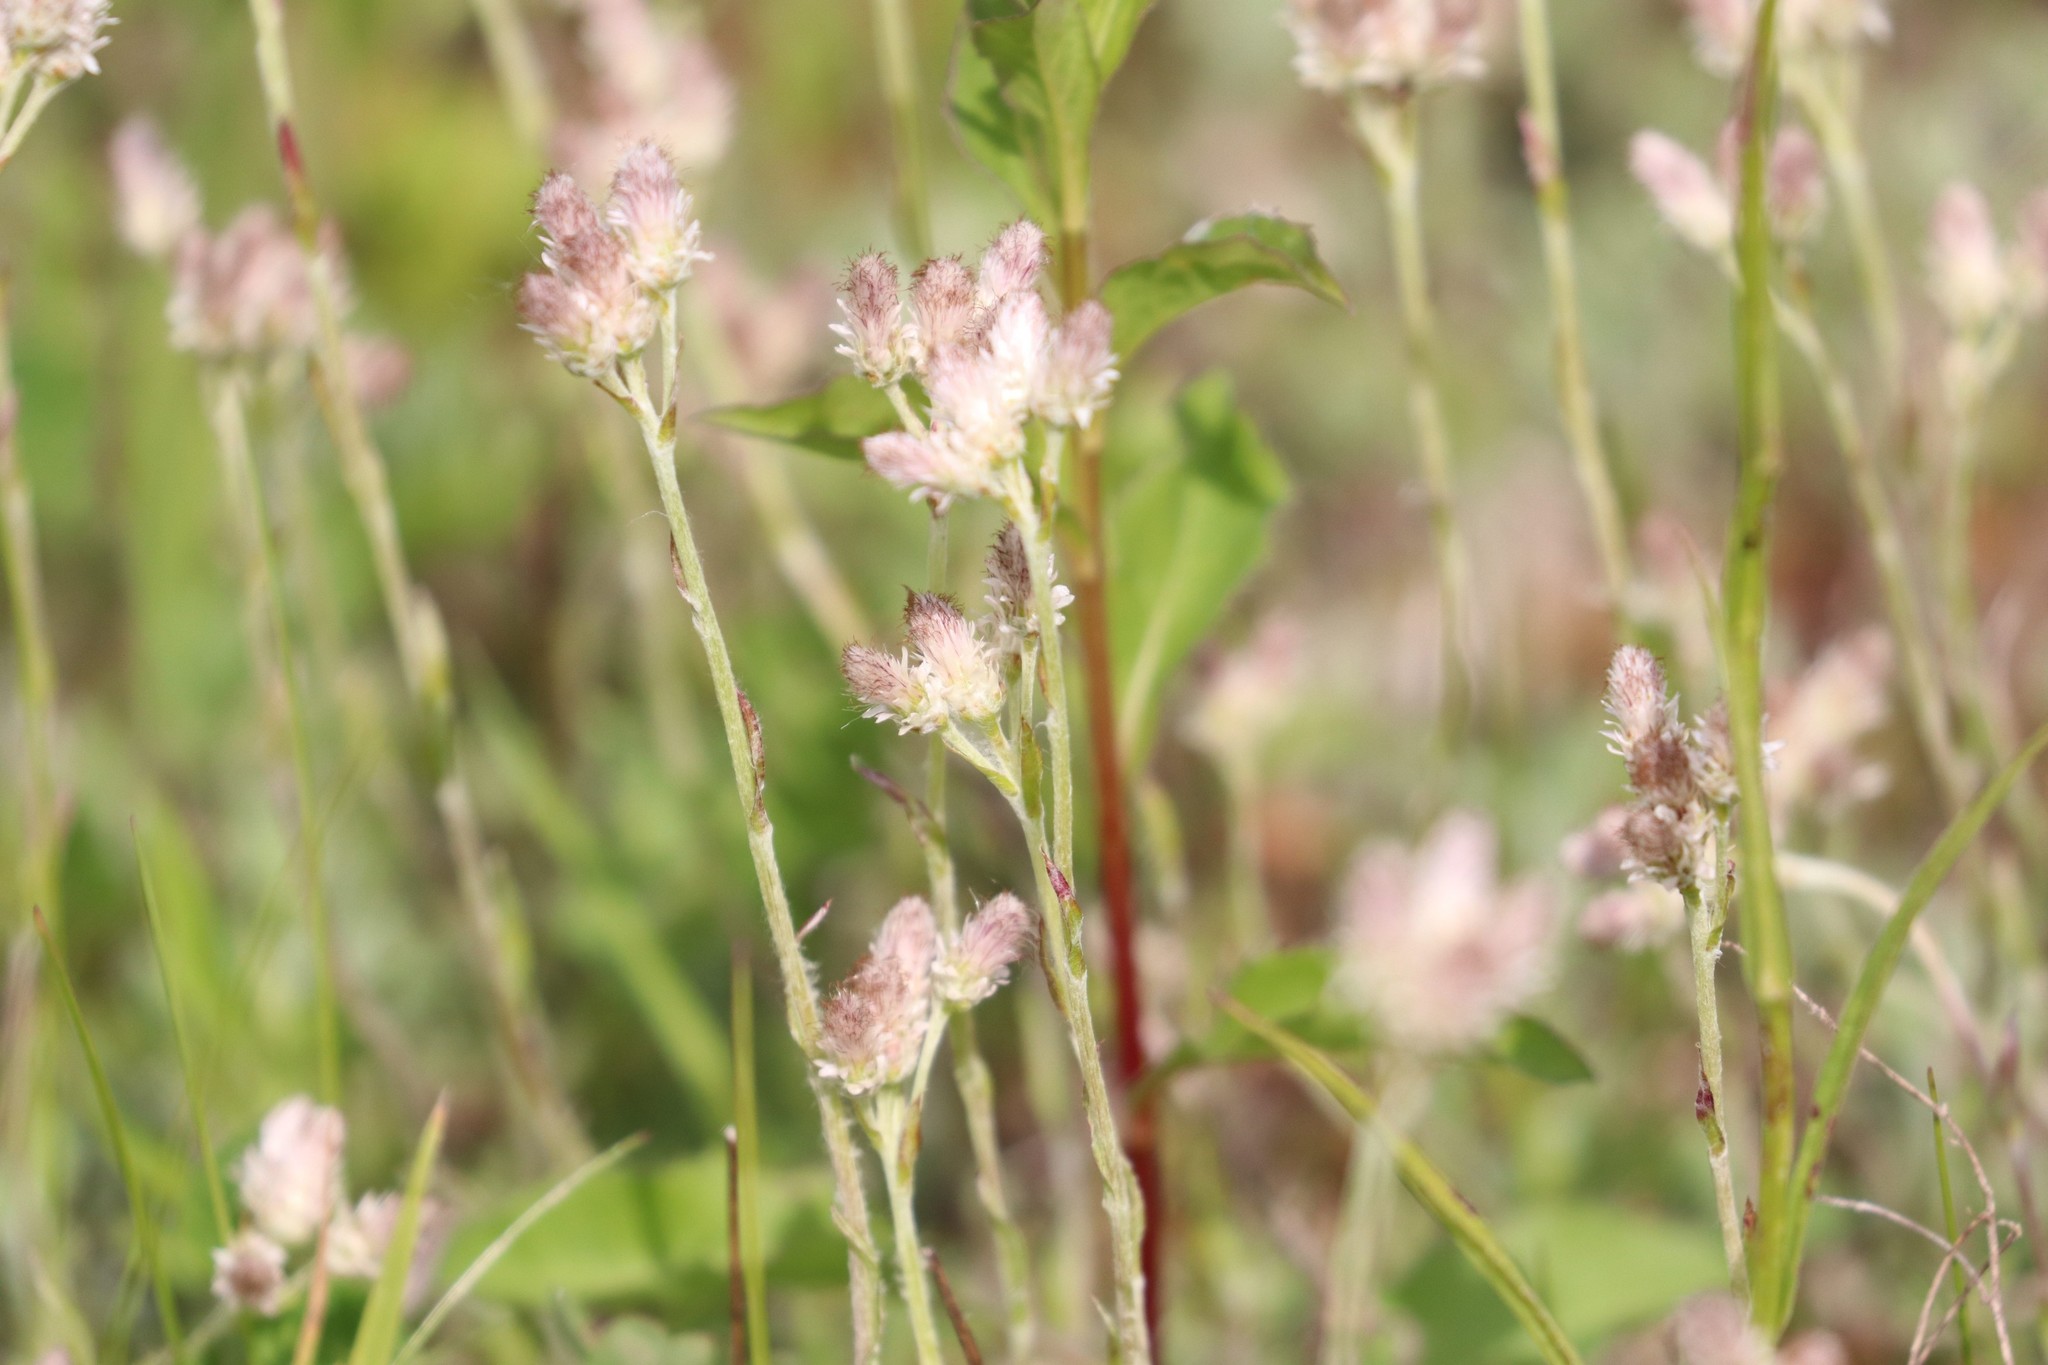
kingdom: Plantae
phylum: Tracheophyta
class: Magnoliopsida
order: Asterales
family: Asteraceae
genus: Antennaria
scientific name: Antennaria dioica
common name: Mountain everlasting
